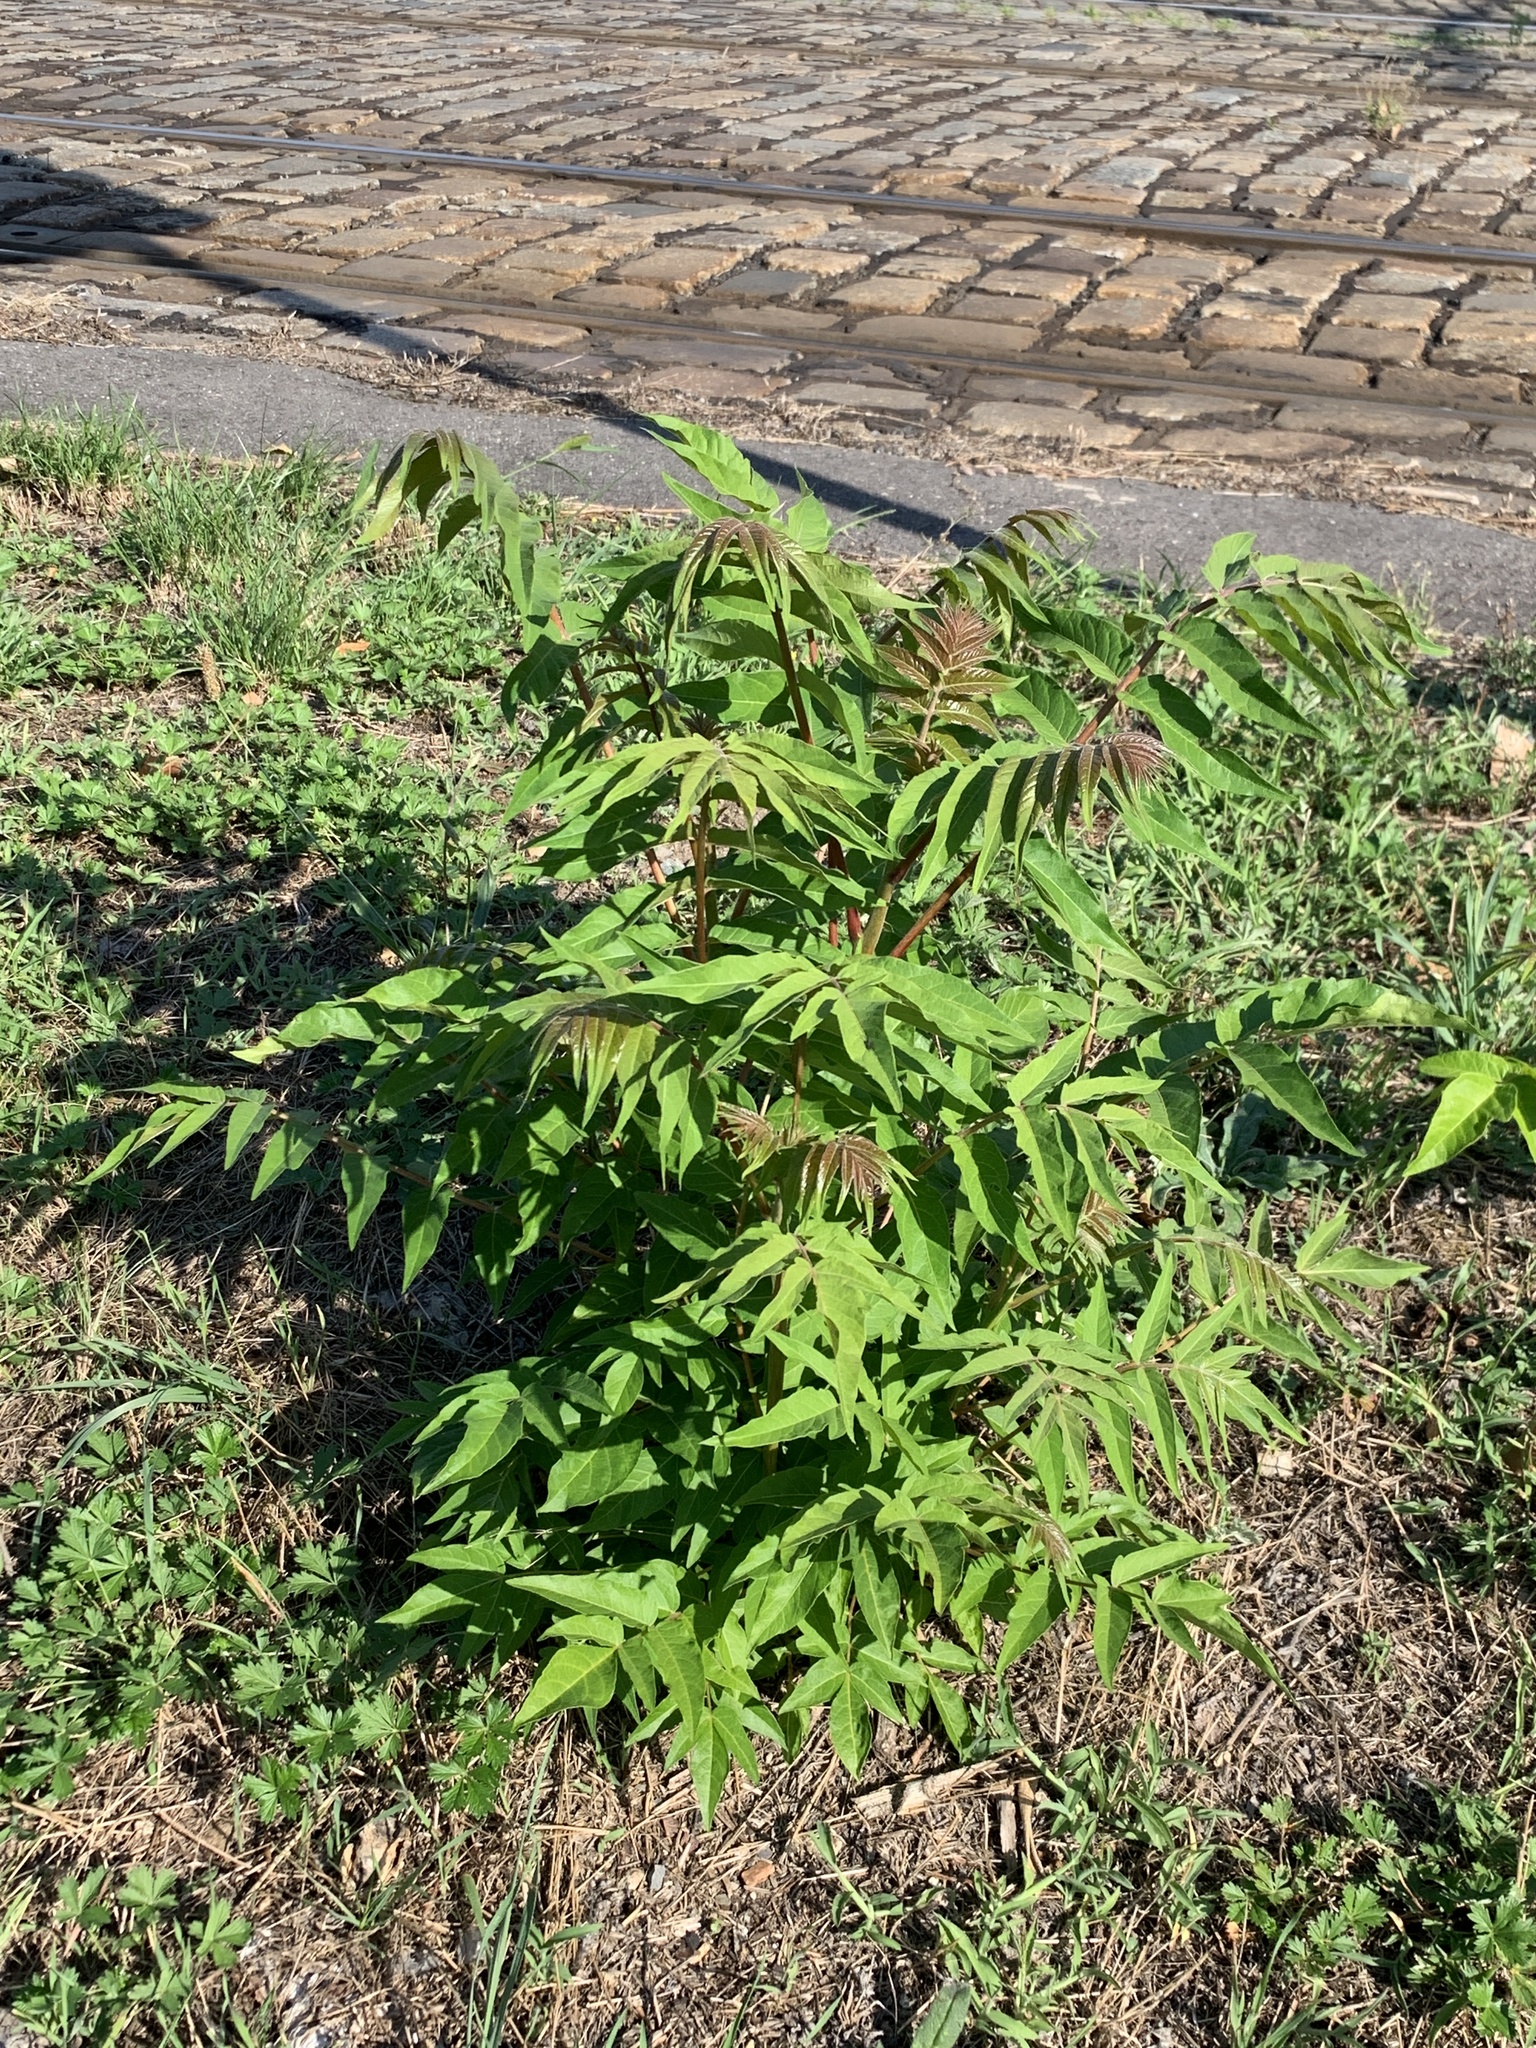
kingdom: Plantae
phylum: Tracheophyta
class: Magnoliopsida
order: Sapindales
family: Simaroubaceae
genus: Ailanthus
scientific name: Ailanthus altissima
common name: Tree-of-heaven
